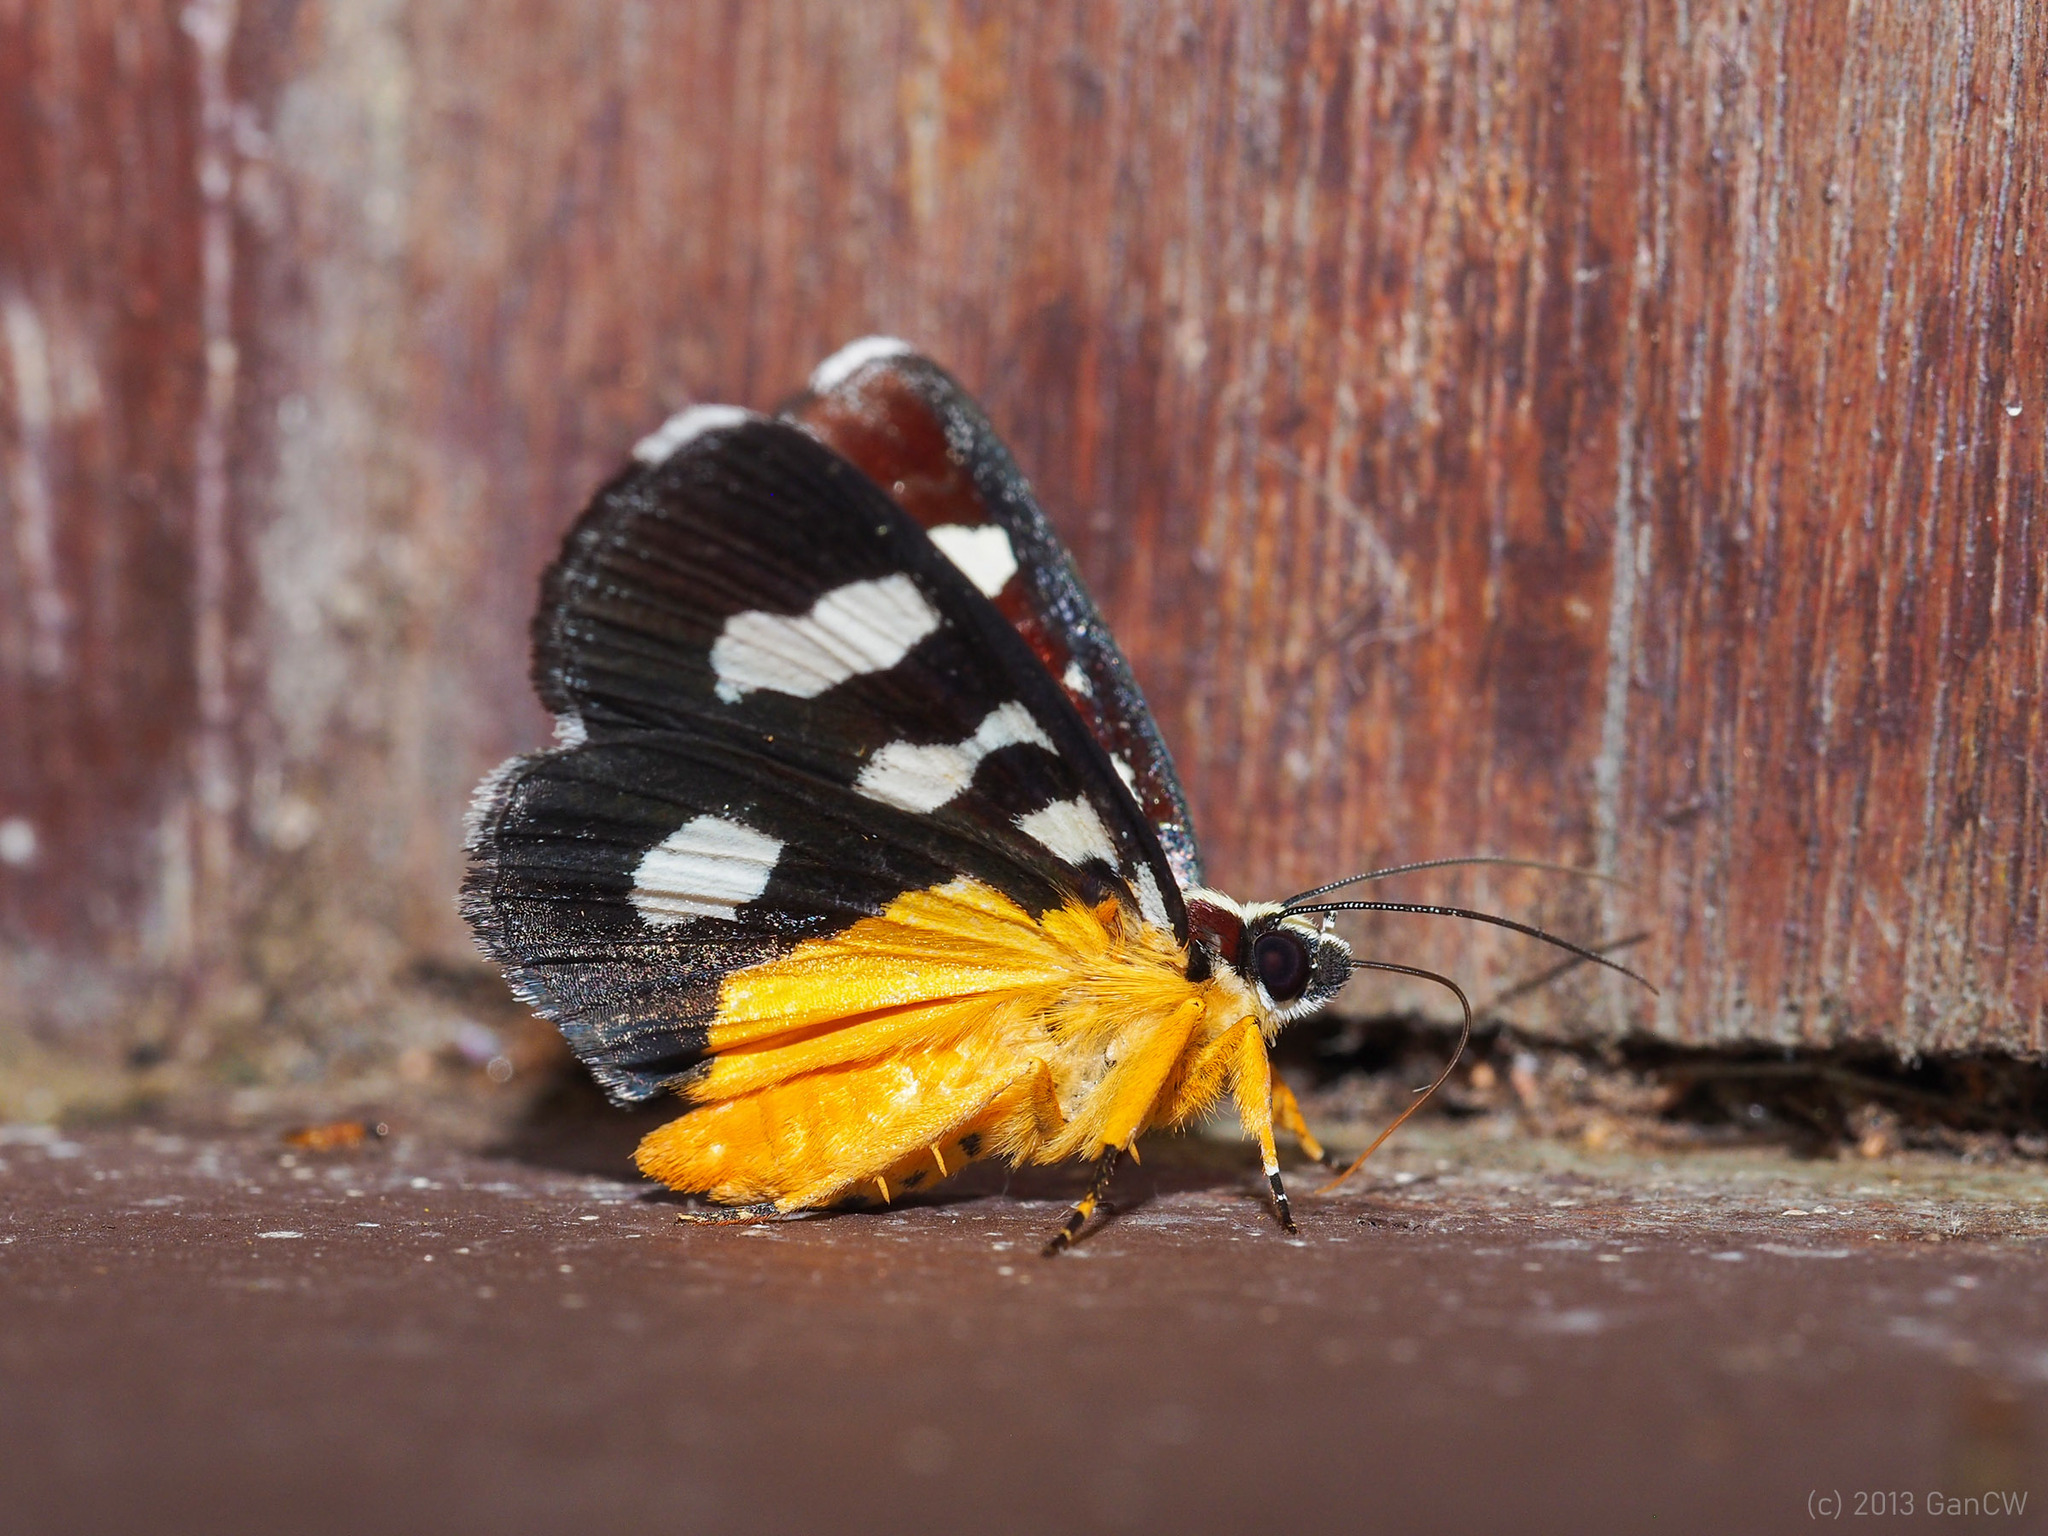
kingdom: Animalia
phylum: Arthropoda
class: Insecta
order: Lepidoptera
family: Noctuidae
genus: Mimeusemia
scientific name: Mimeusemia postica
